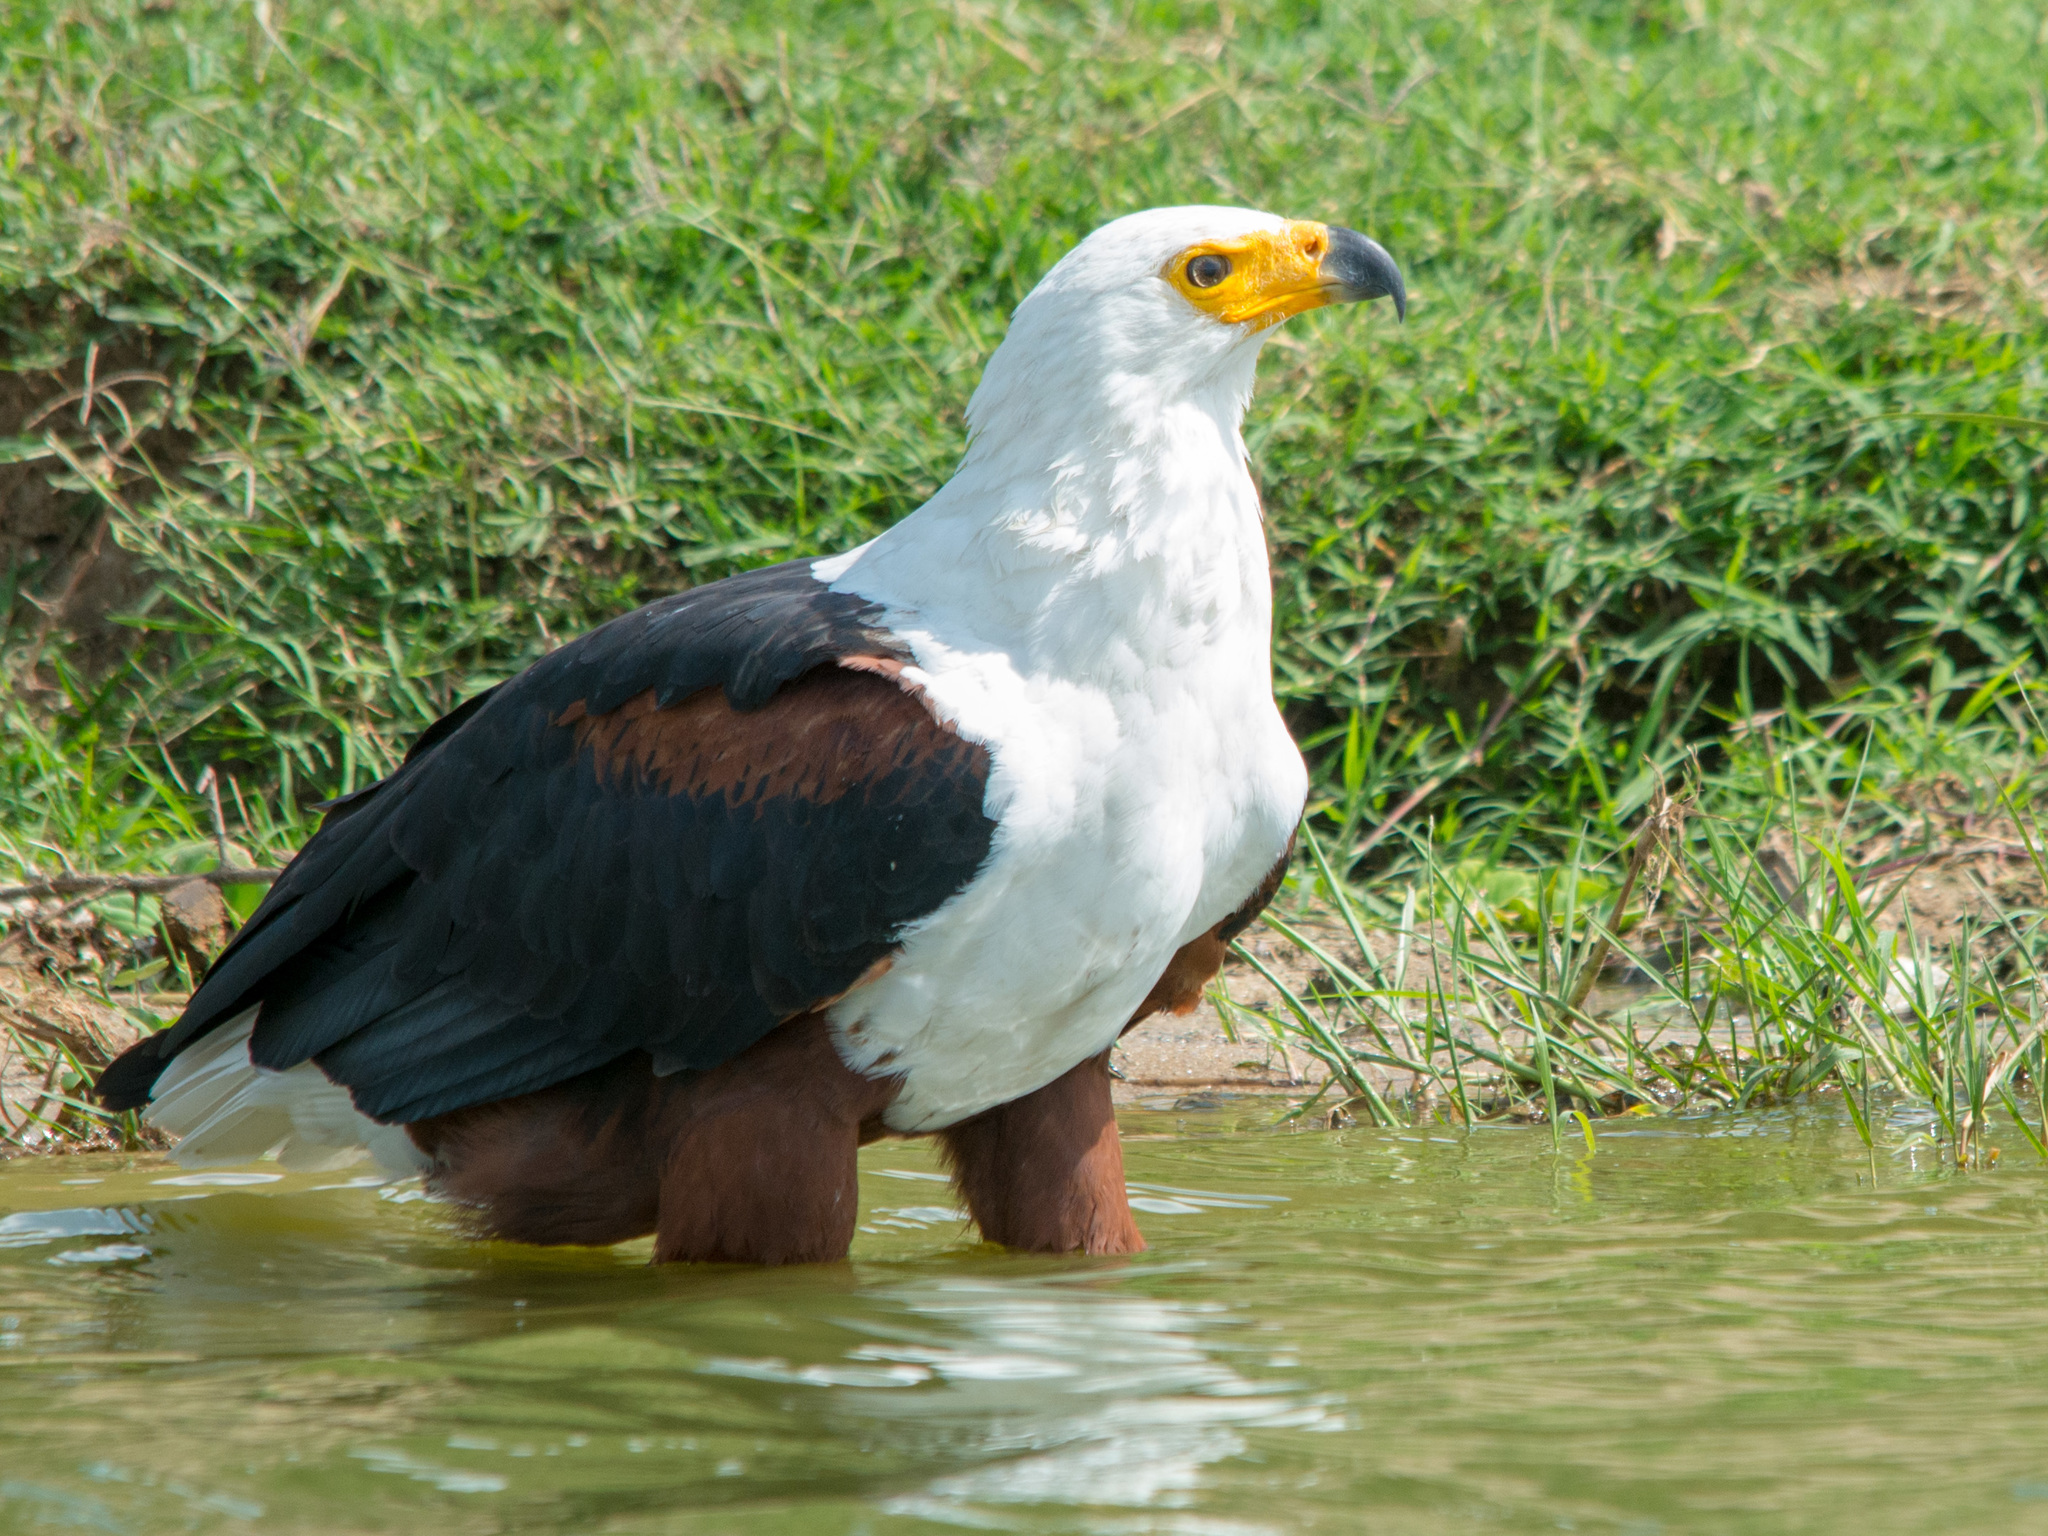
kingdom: Animalia
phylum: Chordata
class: Aves
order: Accipitriformes
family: Accipitridae
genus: Haliaeetus
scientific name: Haliaeetus vocifer
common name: African fish eagle
